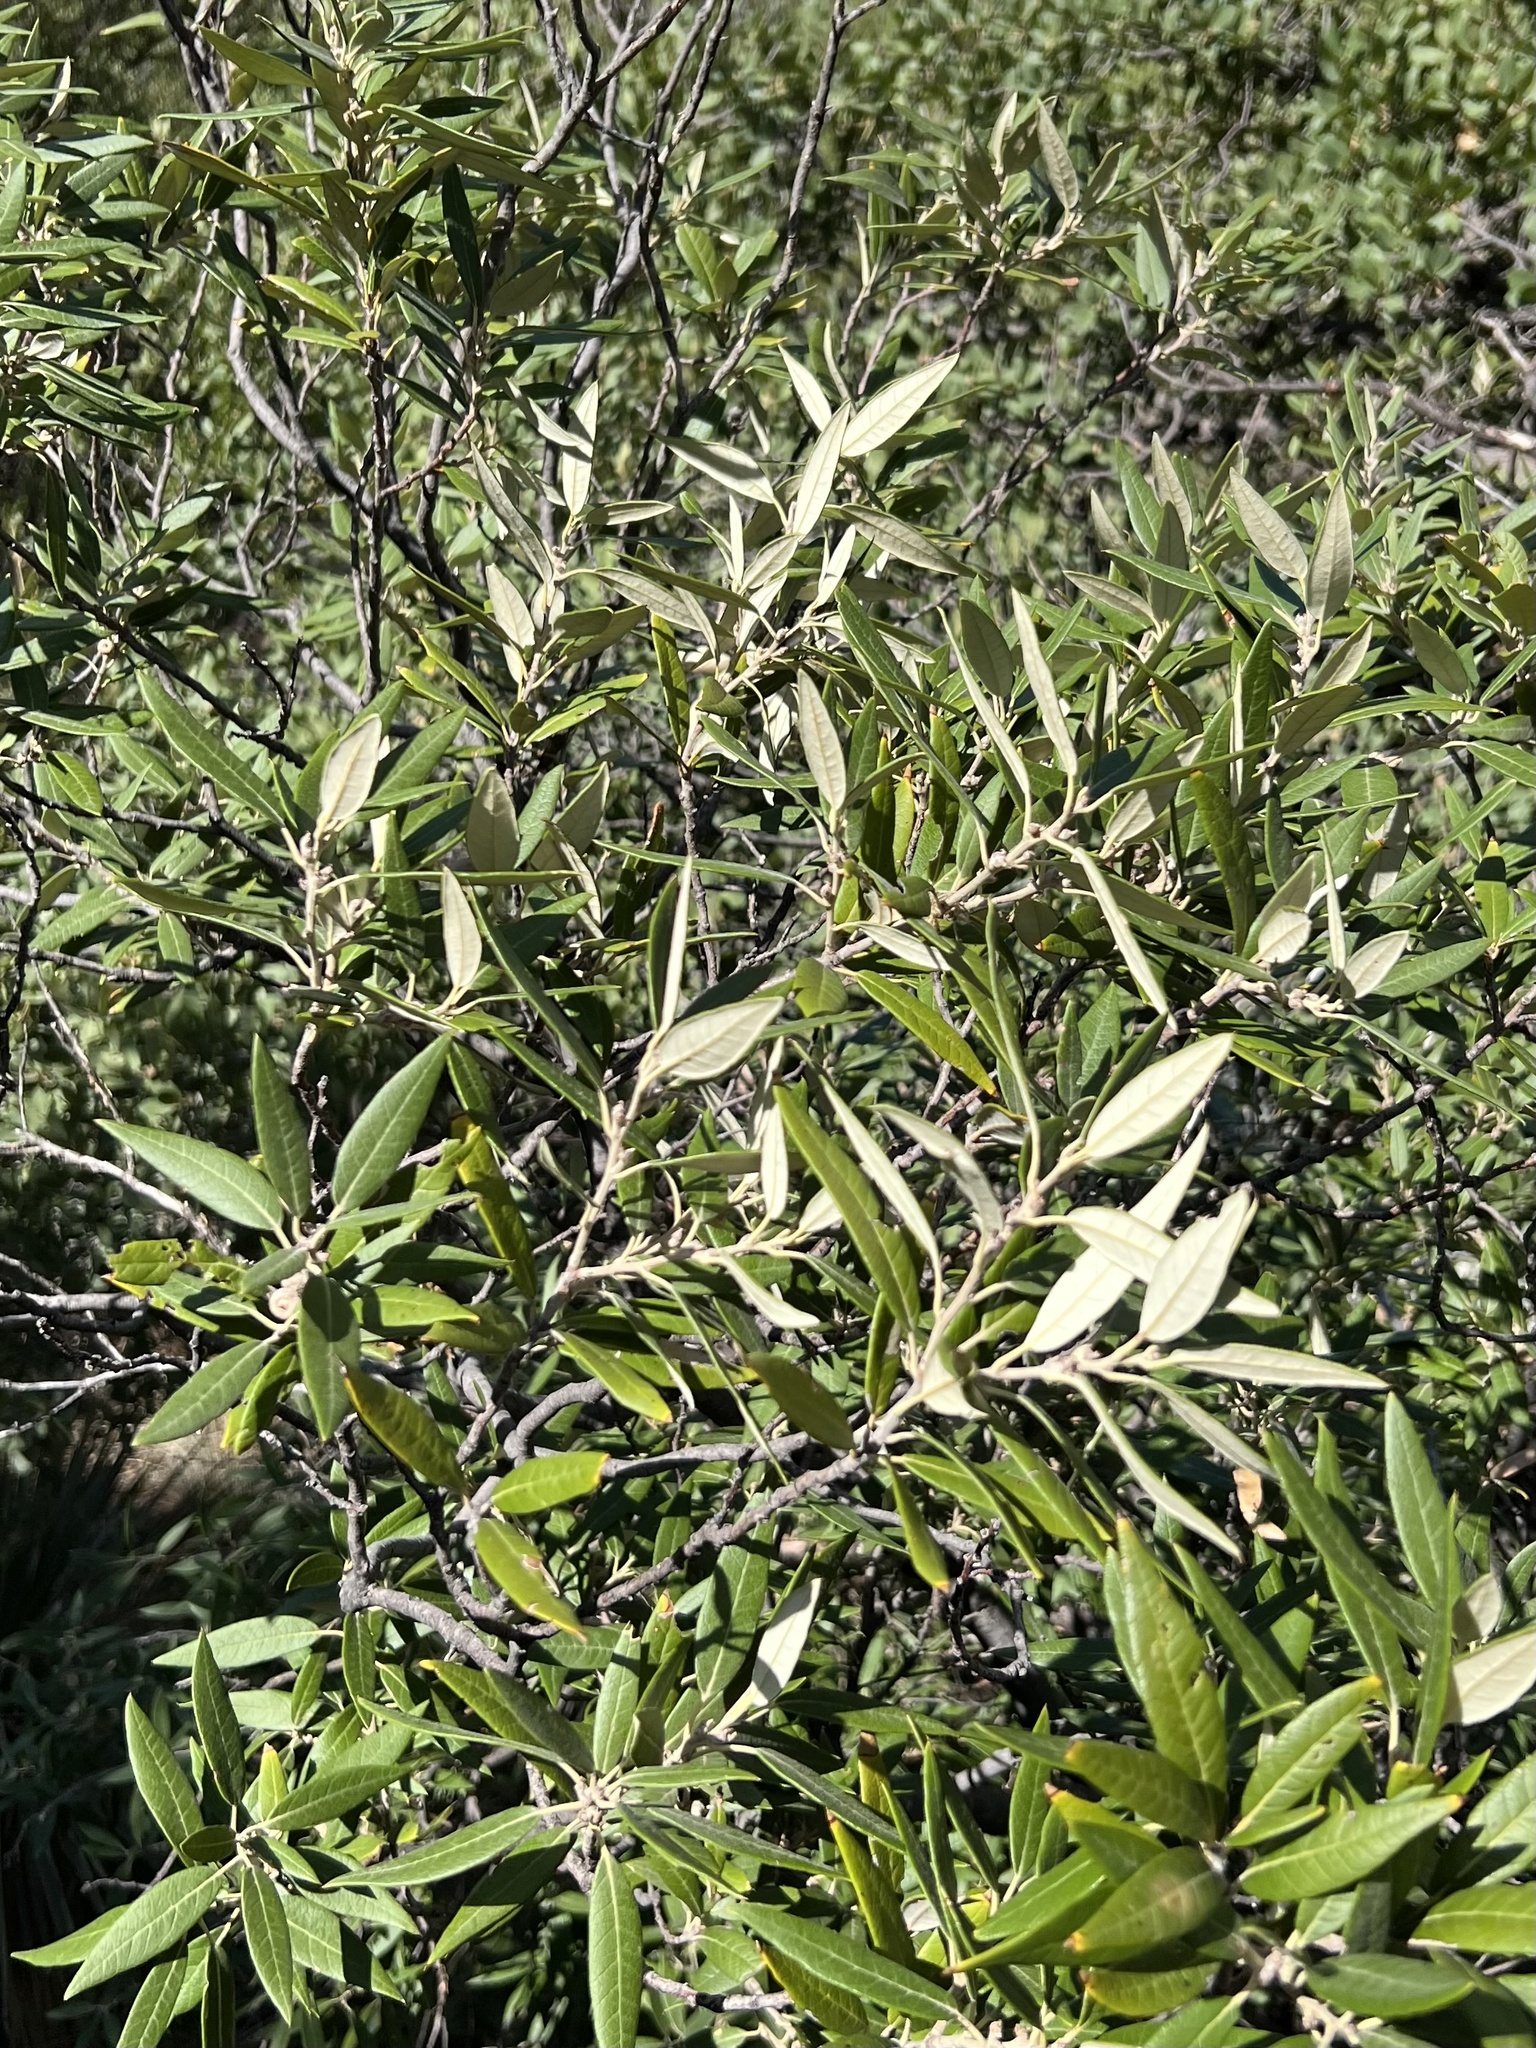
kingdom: Plantae
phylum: Tracheophyta
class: Magnoliopsida
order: Fagales
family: Fagaceae
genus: Quercus
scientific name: Quercus hypoleucoides
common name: Silverleaf oak
